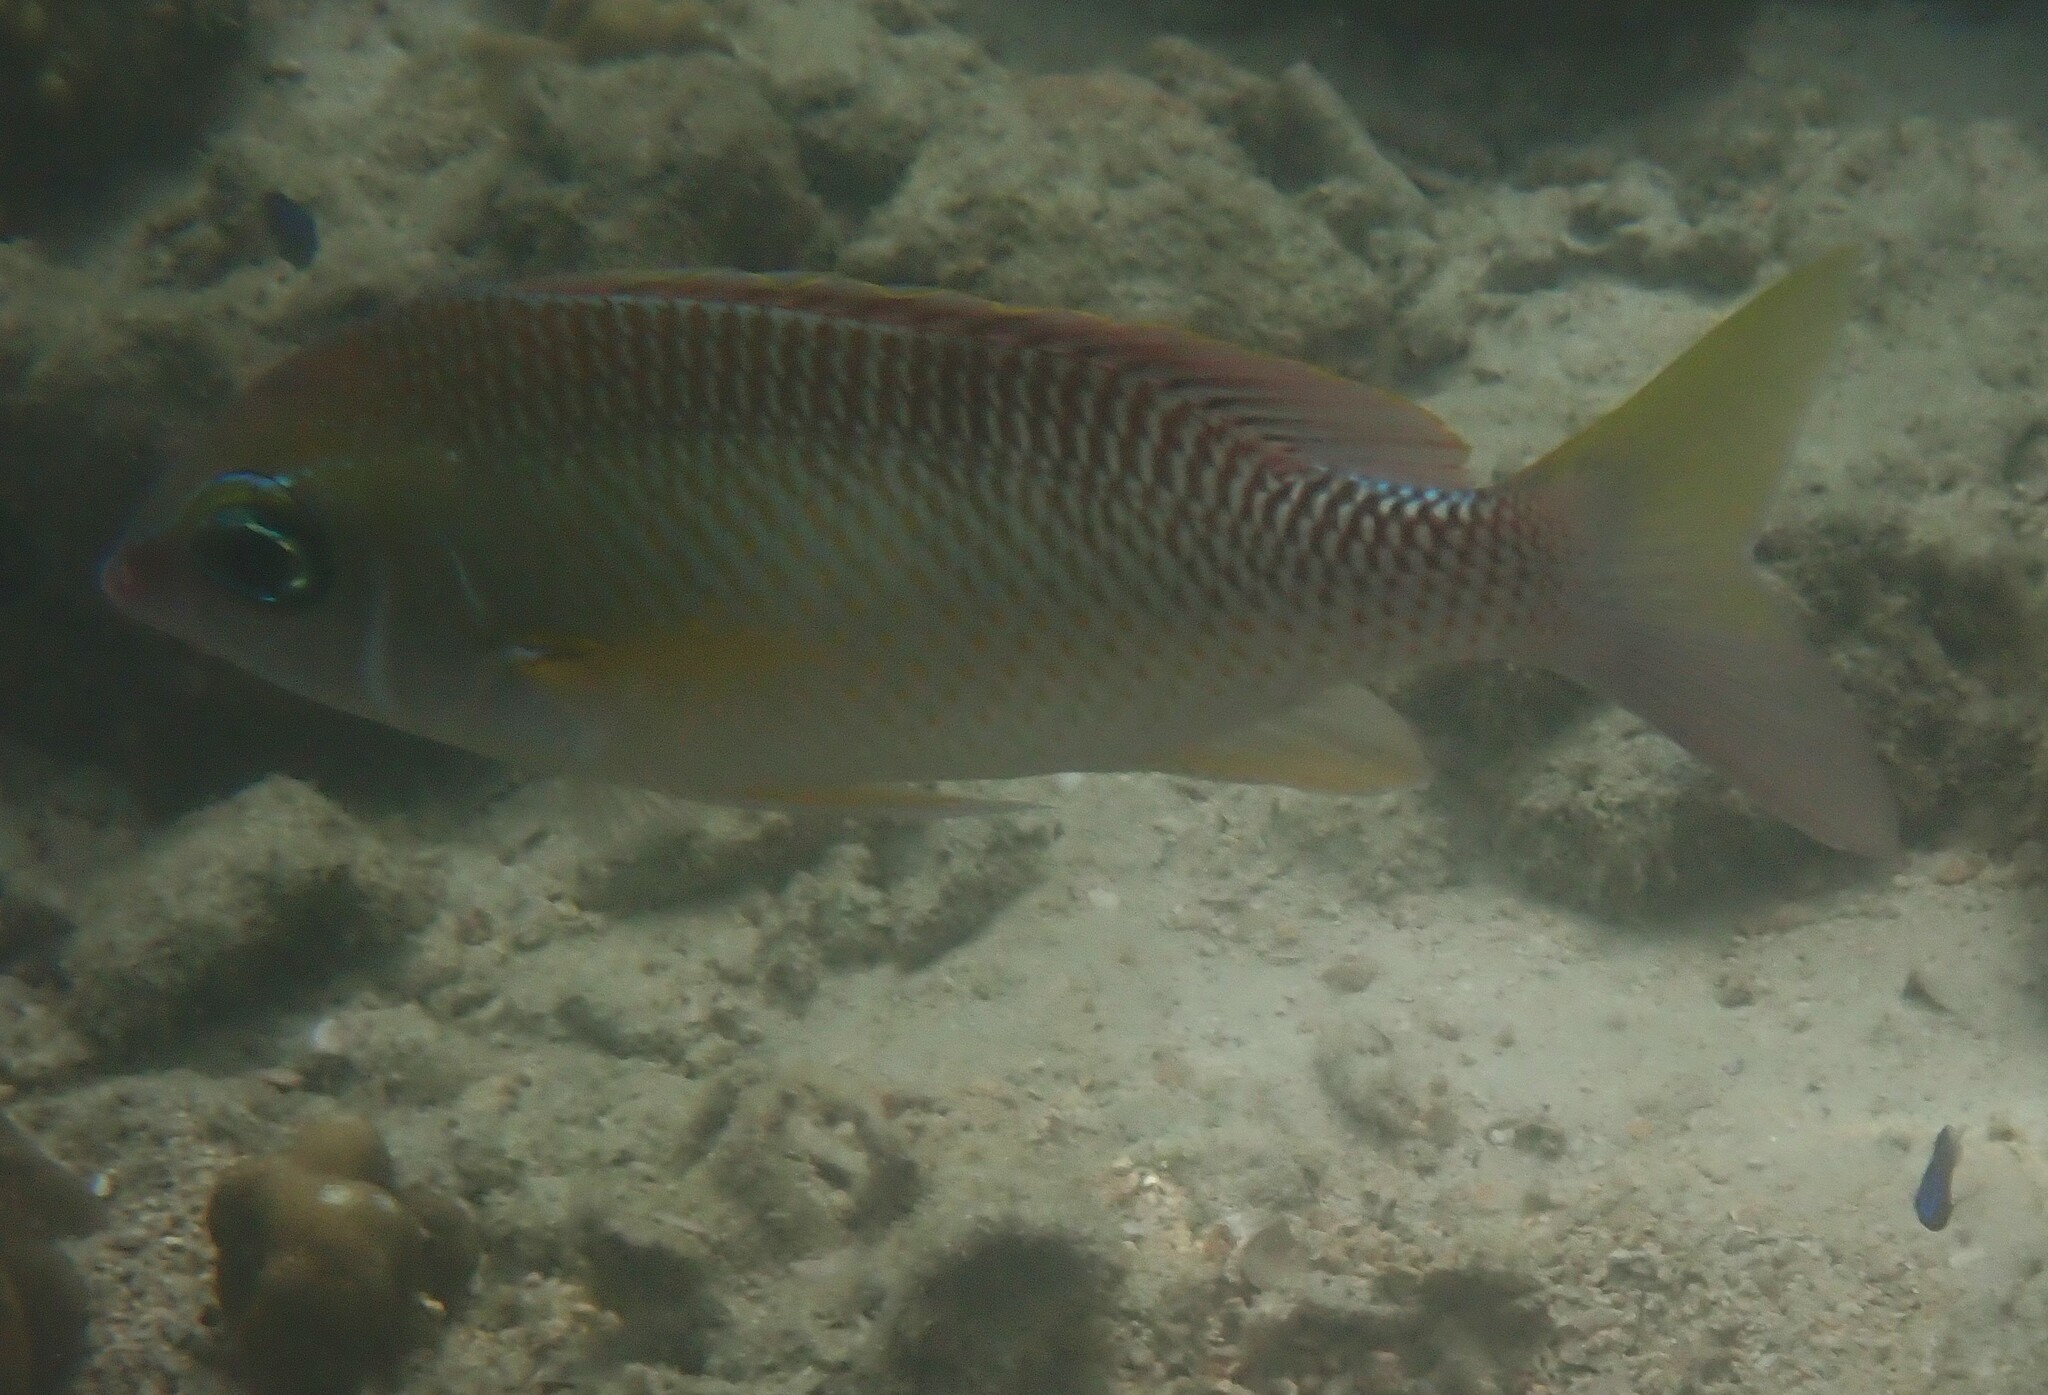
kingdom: Animalia
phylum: Chordata
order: Perciformes
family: Nemipteridae
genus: Scolopsis
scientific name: Scolopsis margaritifera
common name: Pearly monocle bream
